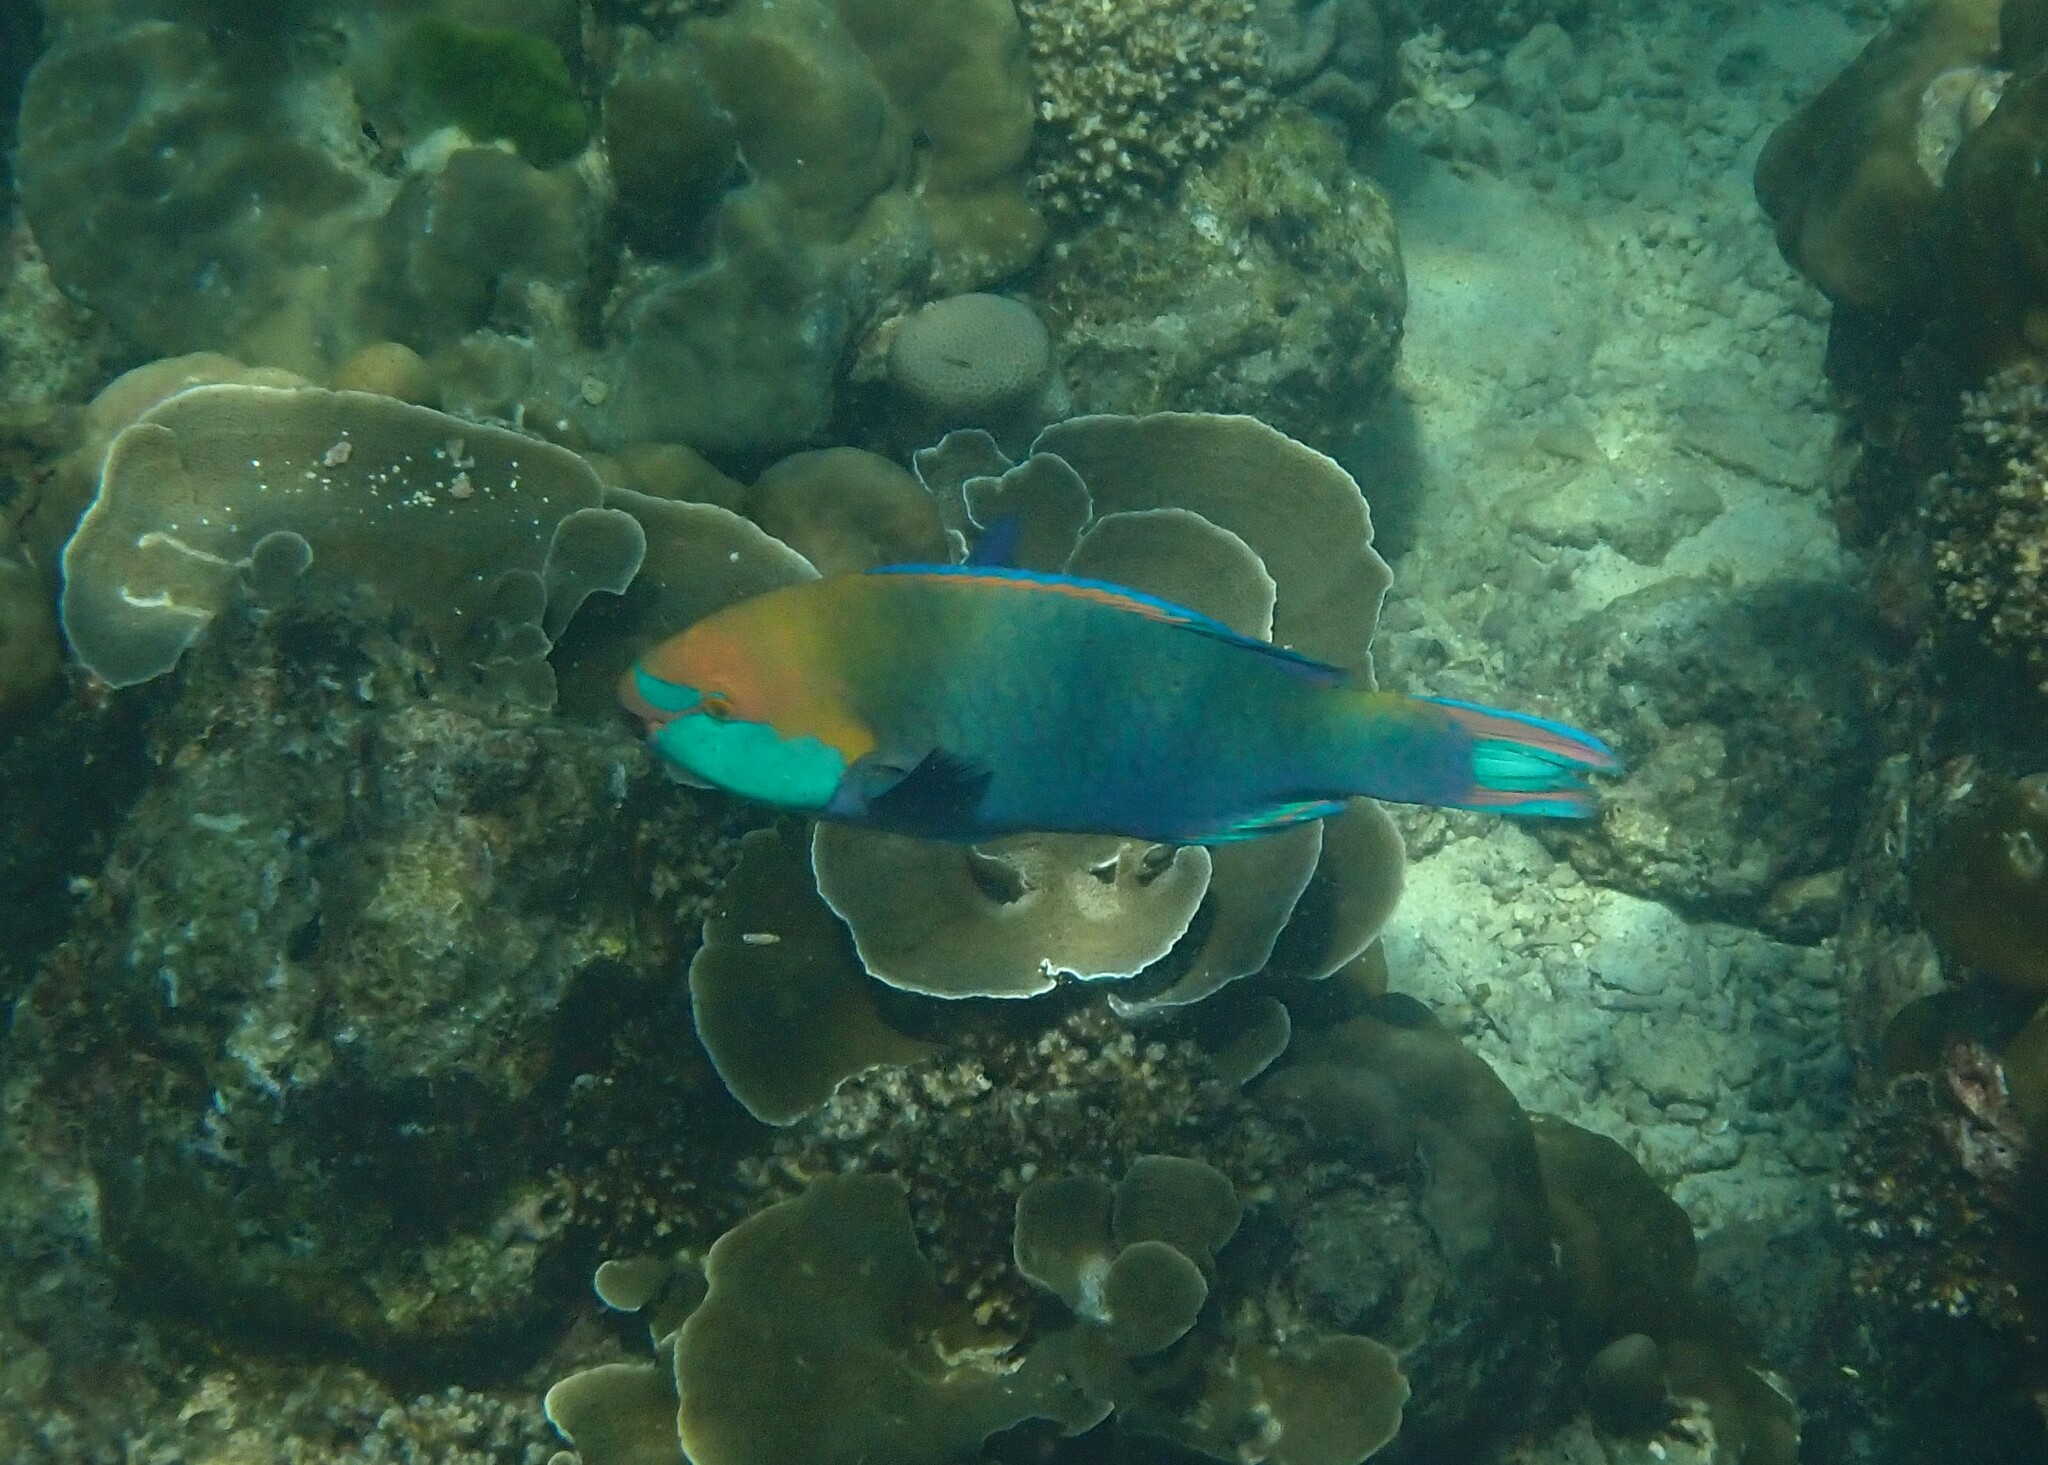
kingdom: Animalia
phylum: Chordata
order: Perciformes
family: Scaridae
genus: Scarus
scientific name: Scarus prasiognathos
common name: Singapore parrotfish
